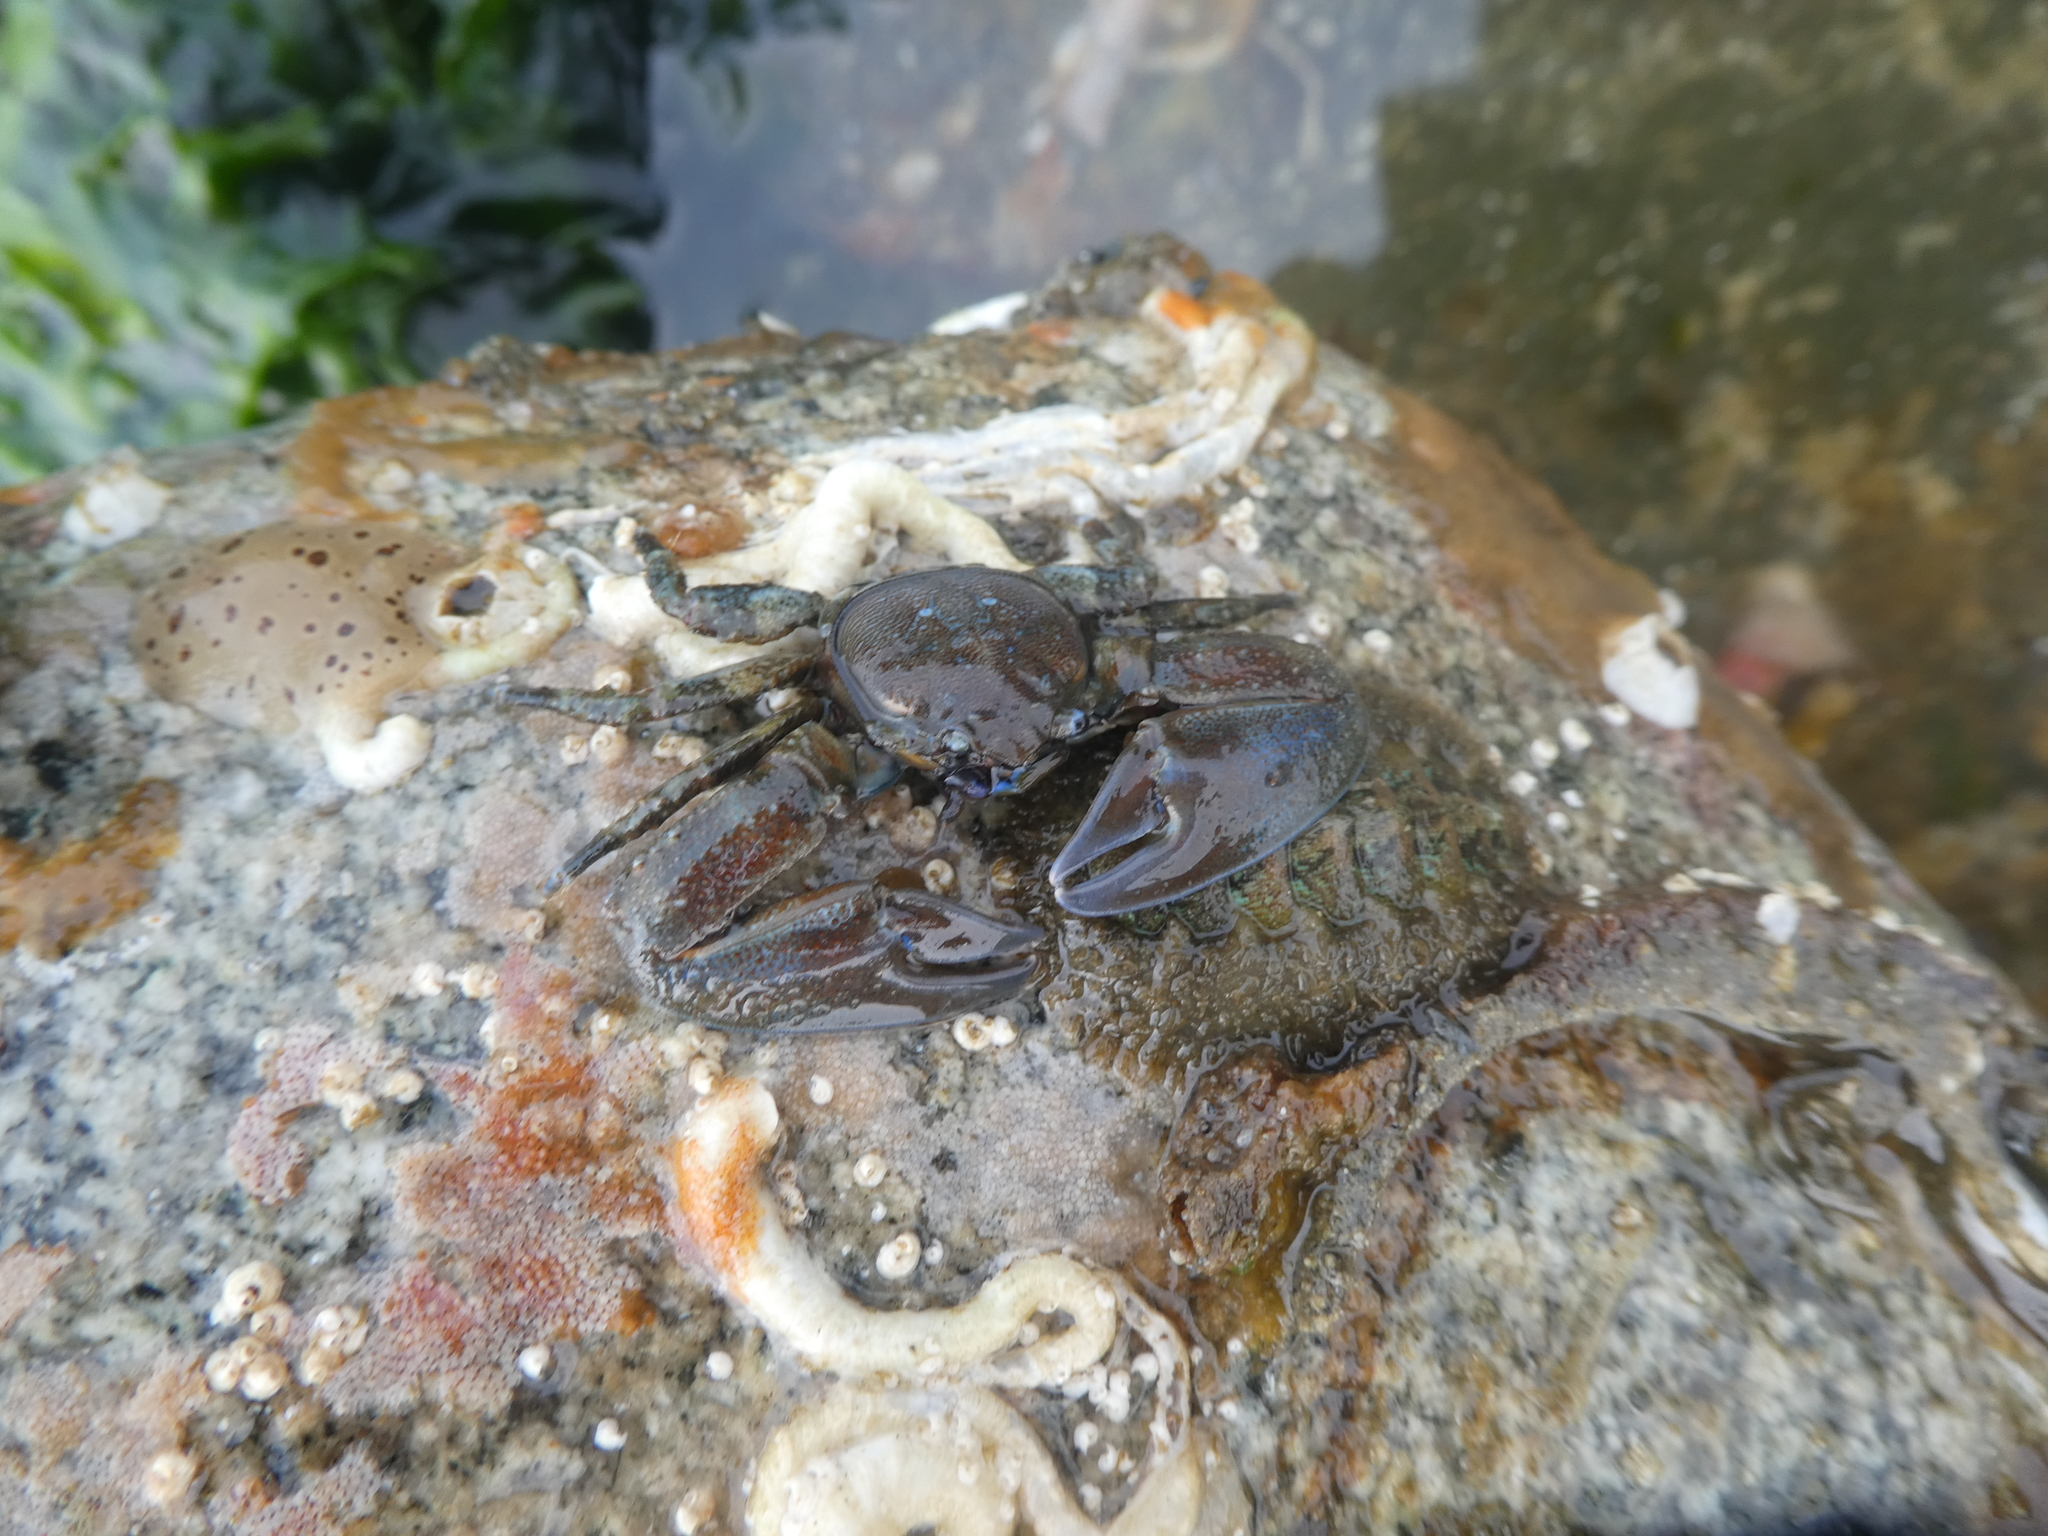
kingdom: Animalia
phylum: Arthropoda
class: Malacostraca
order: Decapoda
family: Porcellanidae
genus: Petrolisthes
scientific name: Petrolisthes eriomerus
